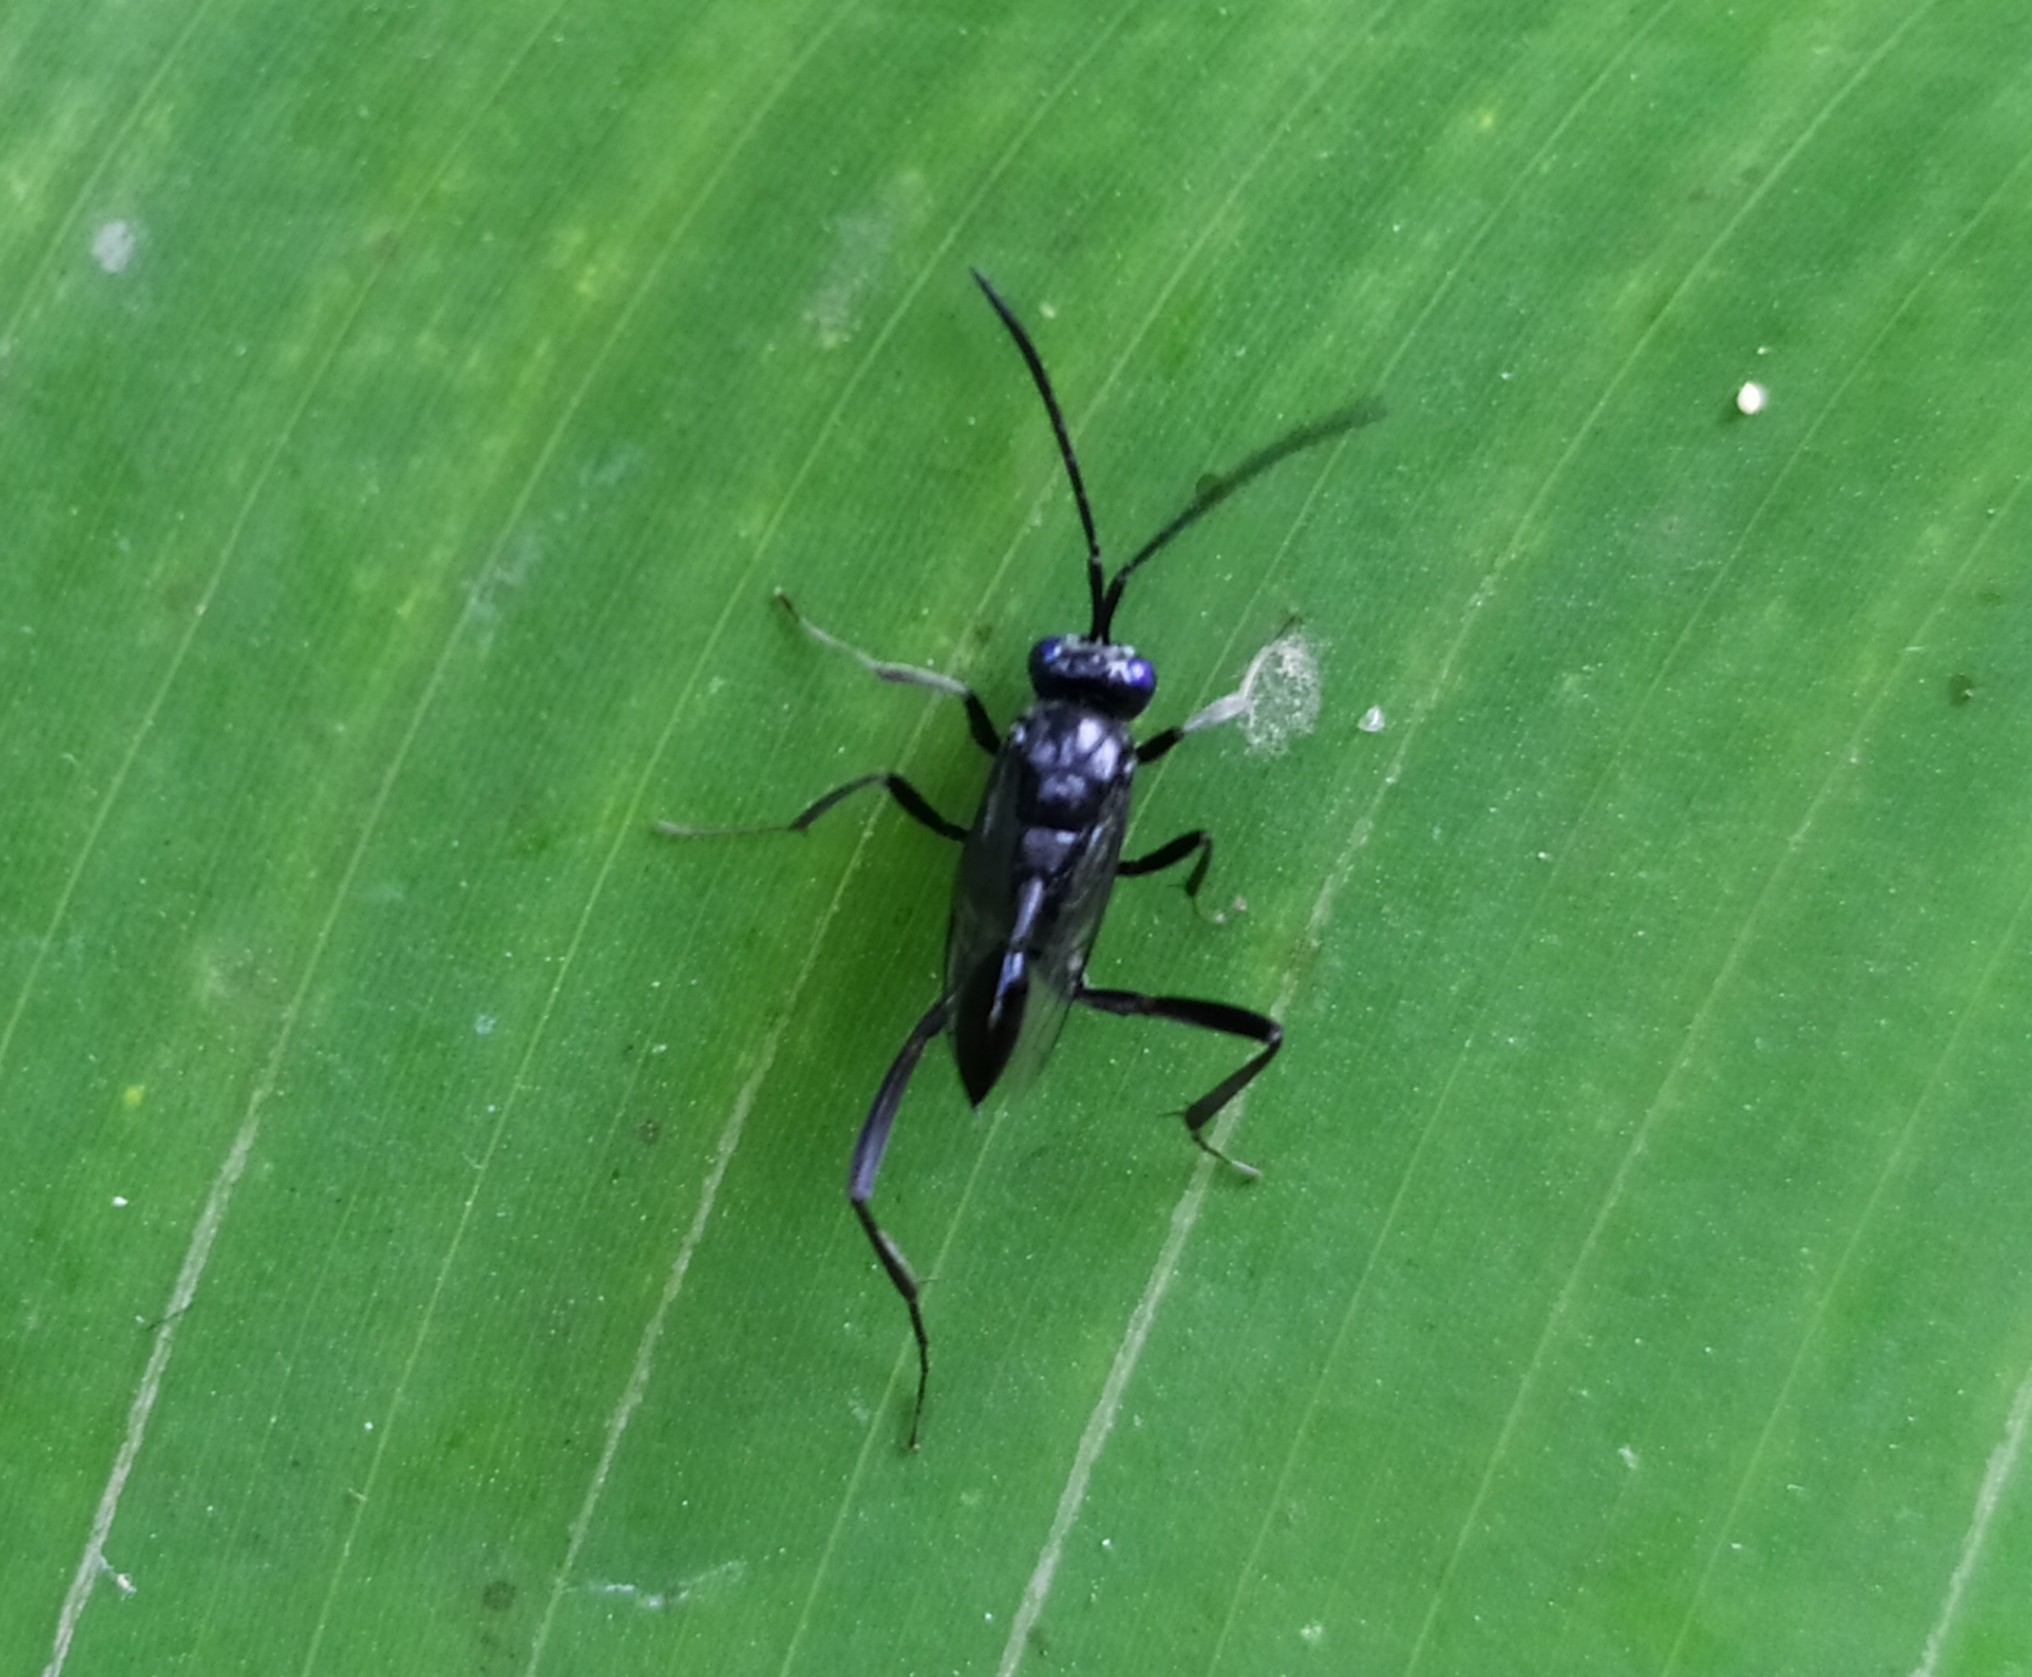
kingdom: Animalia
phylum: Arthropoda
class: Insecta
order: Hymenoptera
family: Evaniidae
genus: Evania
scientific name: Evania appendigaster
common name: Ensign wasp
